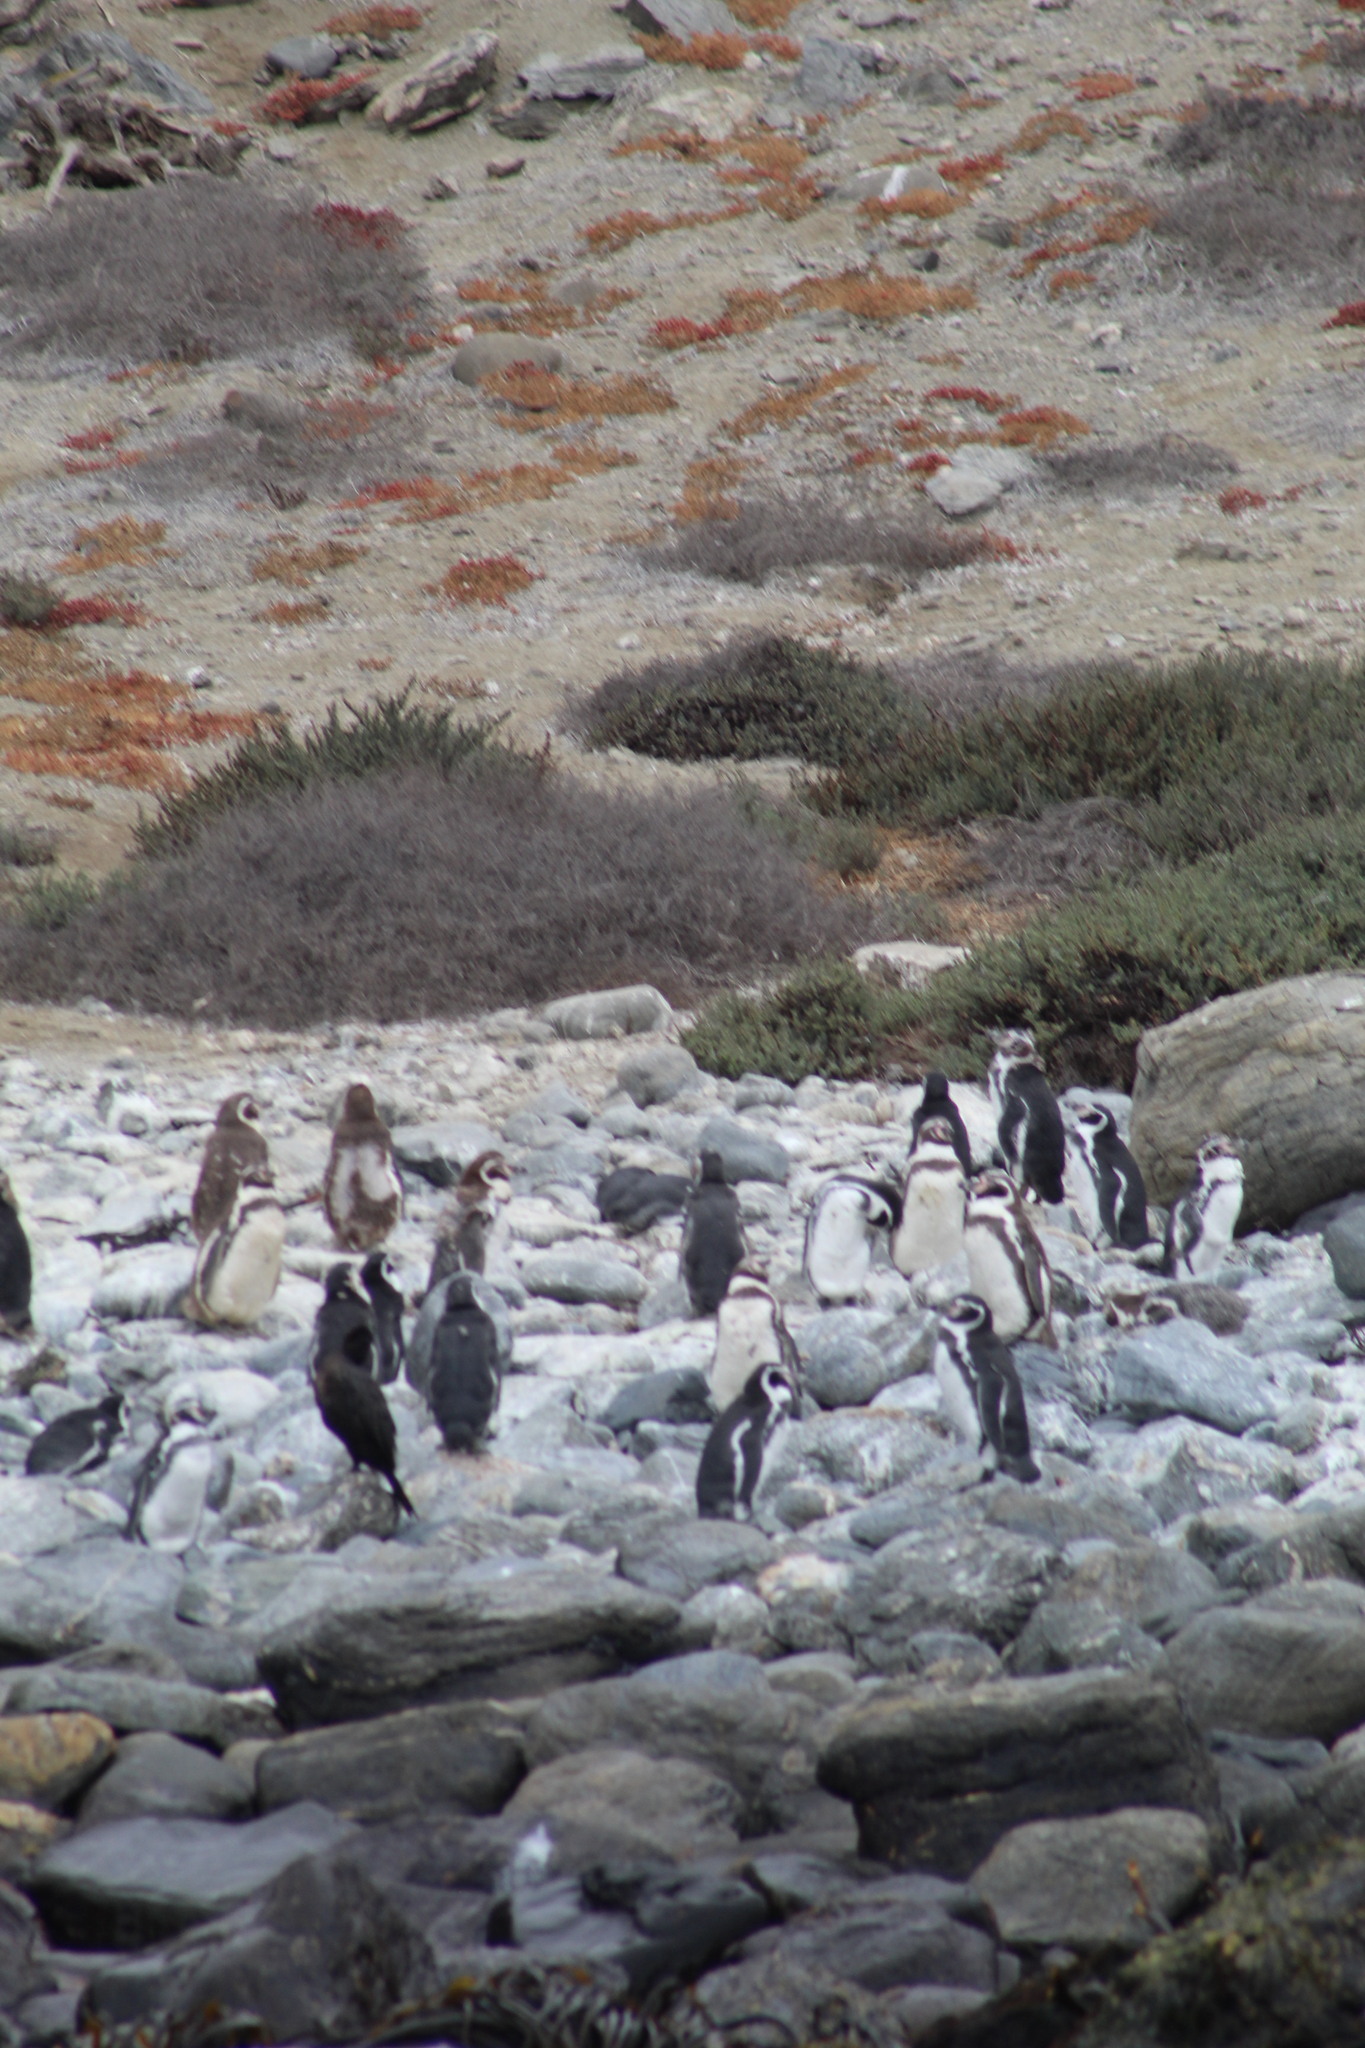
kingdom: Animalia
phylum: Chordata
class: Aves
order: Sphenisciformes
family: Spheniscidae
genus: Spheniscus
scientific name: Spheniscus humboldti
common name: Humboldt penguin
